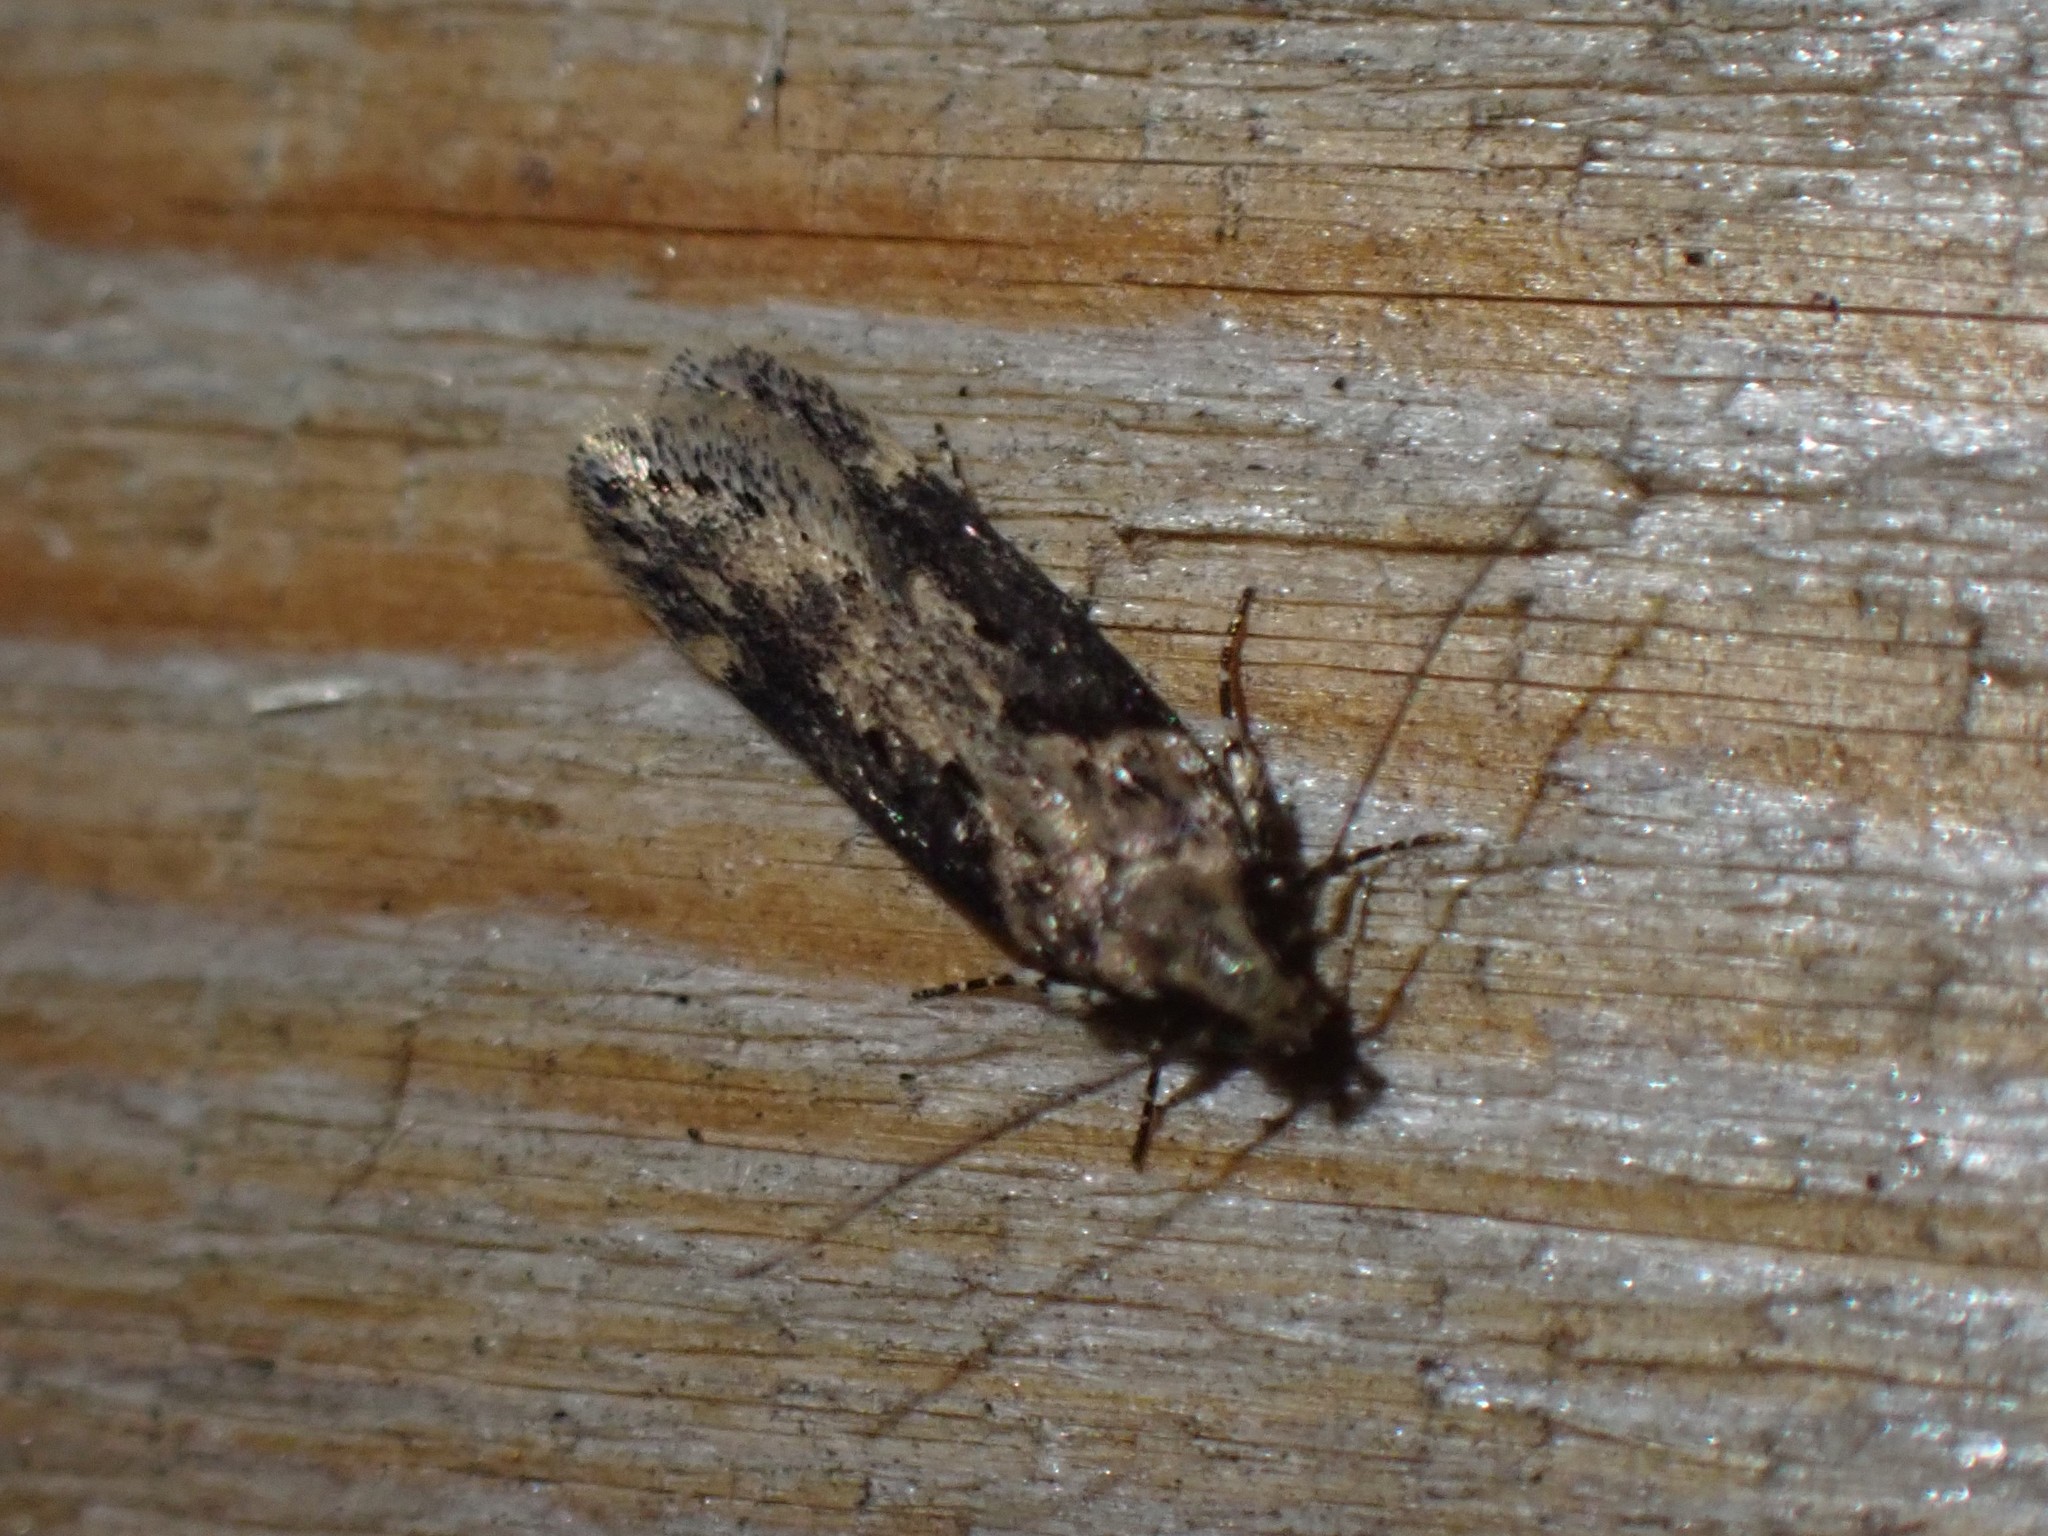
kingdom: Animalia
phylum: Arthropoda
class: Insecta
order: Lepidoptera
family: Gelechiidae
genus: Chionodes
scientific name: Chionodes mediofuscella
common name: Black-smudged chionodes moth
